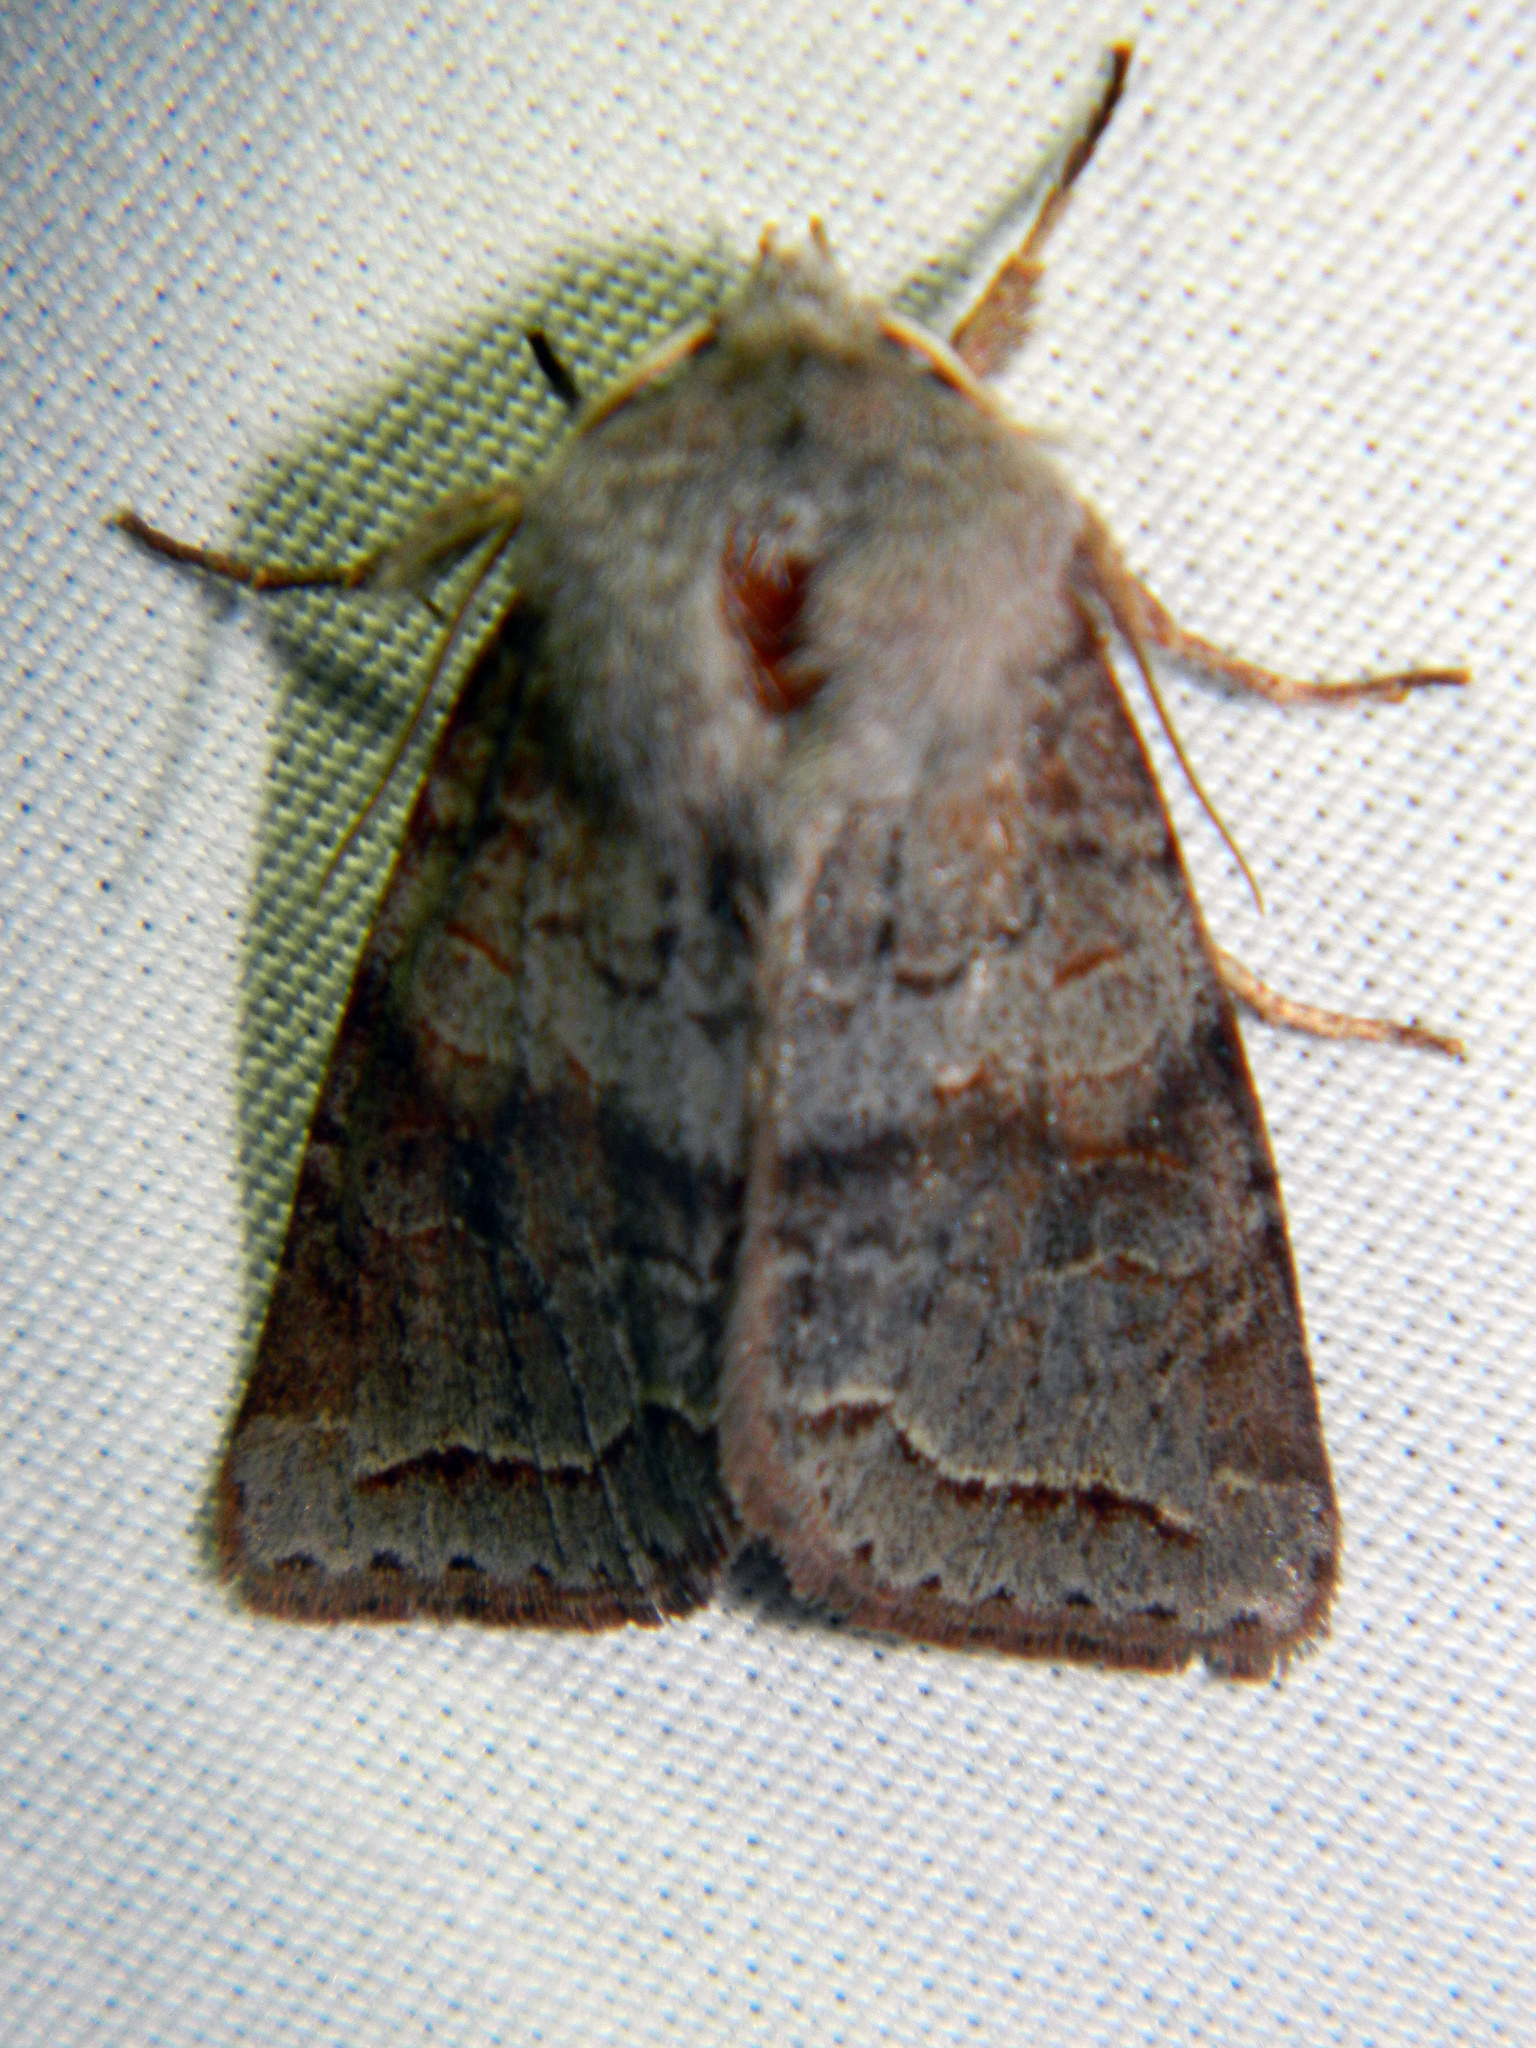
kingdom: Animalia
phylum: Arthropoda
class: Insecta
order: Lepidoptera
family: Noctuidae
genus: Orthosia
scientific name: Orthosia revicta
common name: Rusty whitesided caterpillar
